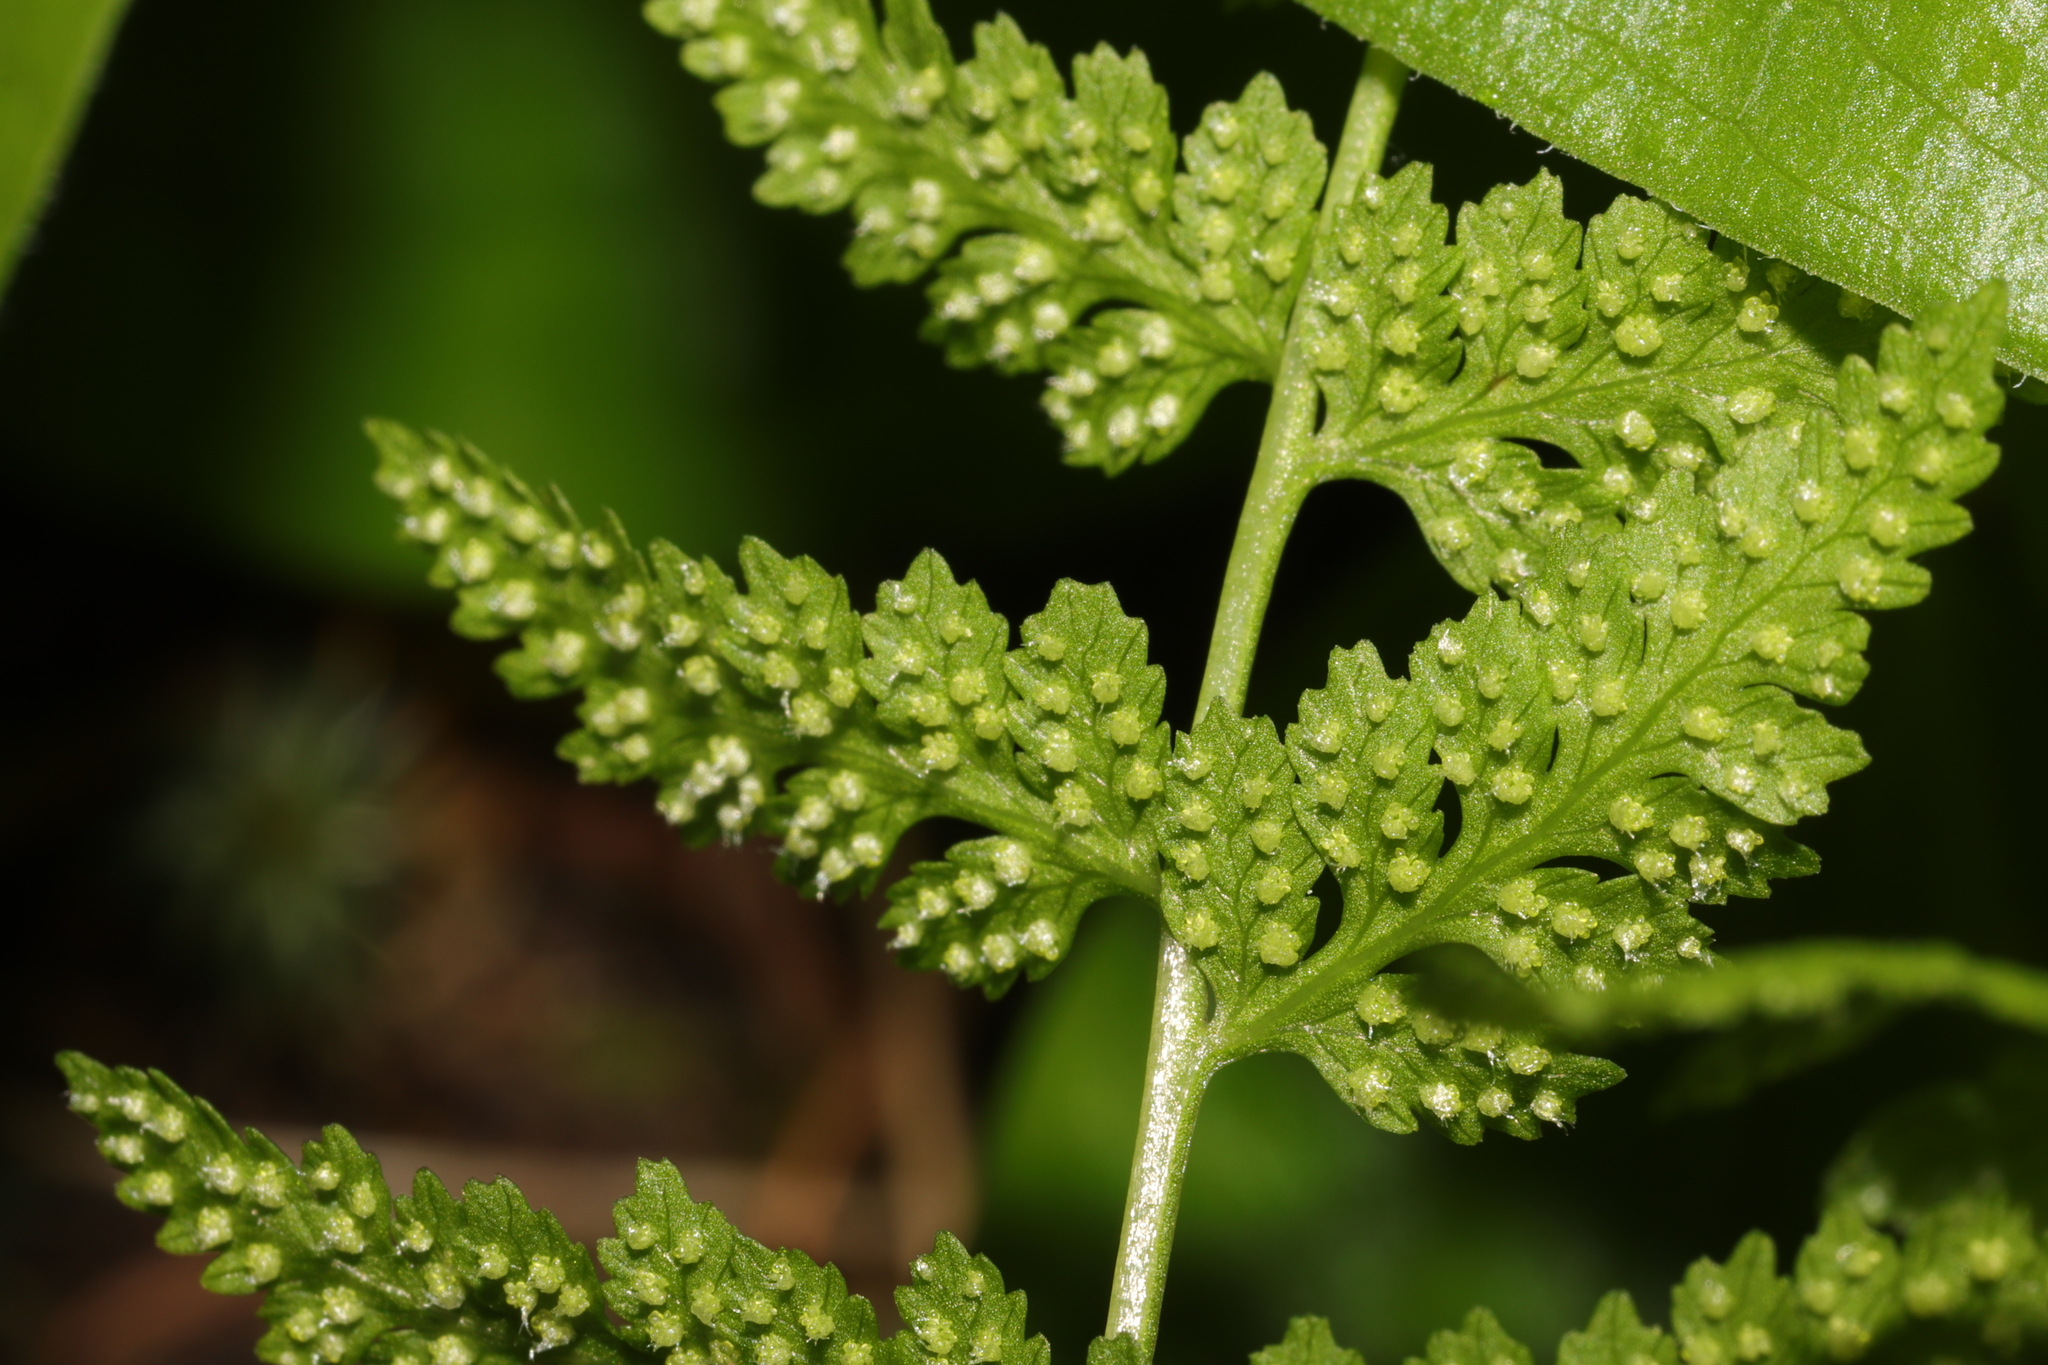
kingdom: Plantae
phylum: Tracheophyta
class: Polypodiopsida
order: Polypodiales
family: Cystopteridaceae
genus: Cystopteris
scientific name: Cystopteris fragilis
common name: Brittle bladder fern
